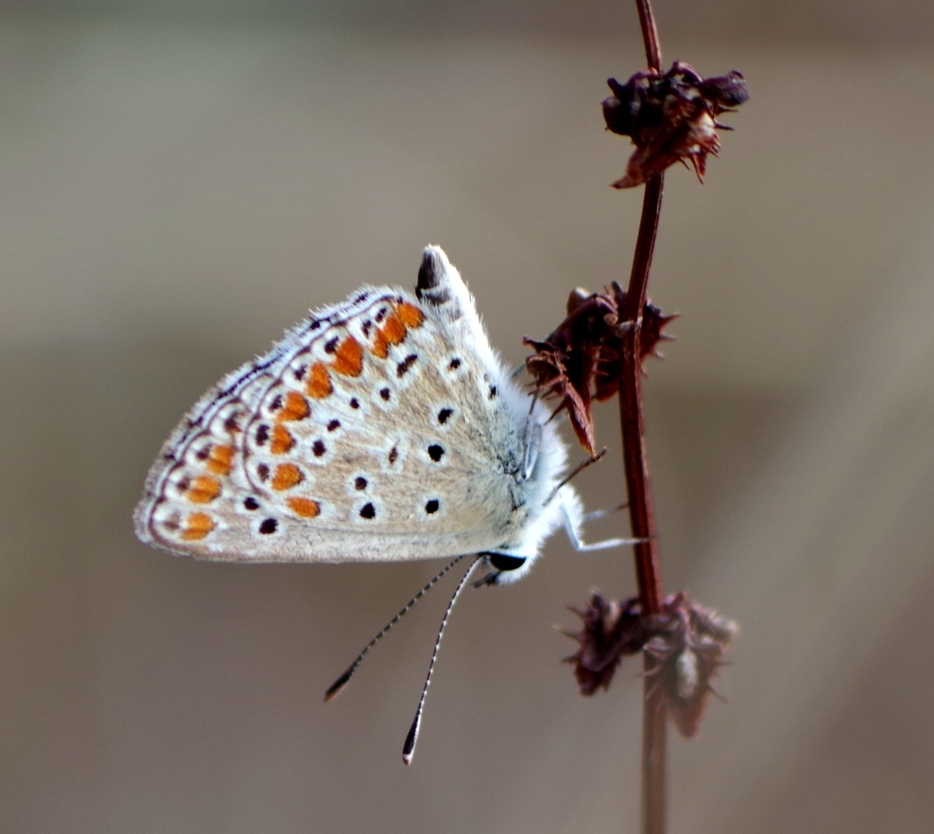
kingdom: Animalia
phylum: Arthropoda
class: Insecta
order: Lepidoptera
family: Lycaenidae
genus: Aricia
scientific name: Aricia agestis
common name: Brown argus
